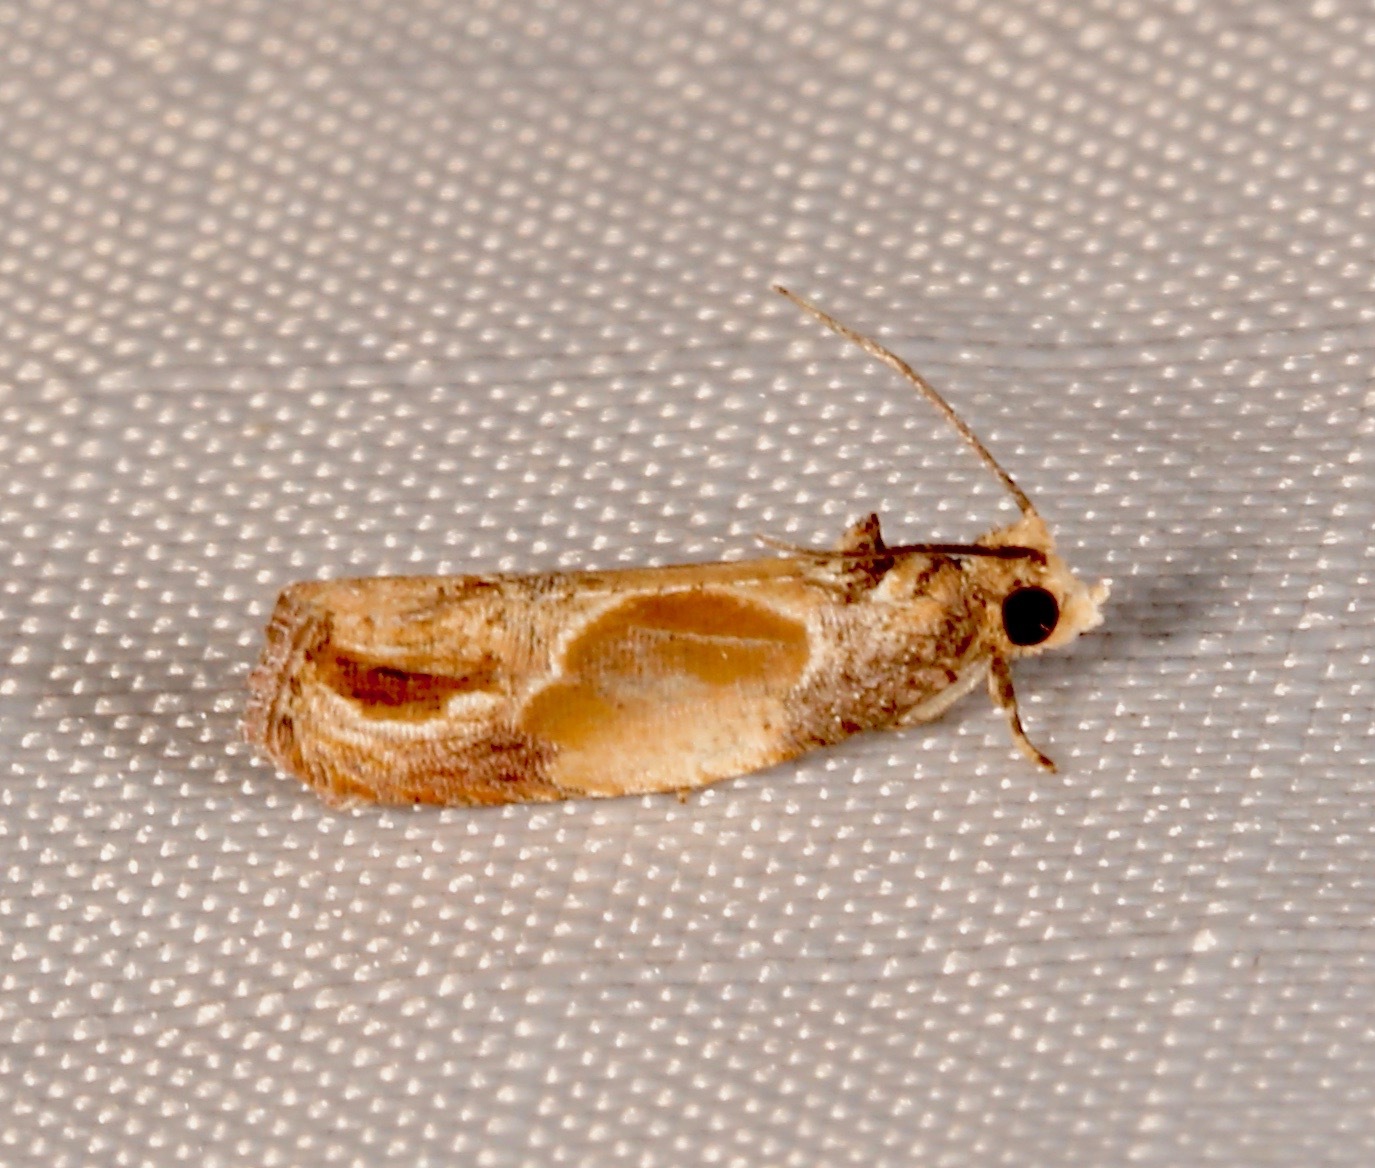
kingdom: Animalia
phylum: Arthropoda
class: Insecta
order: Lepidoptera
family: Tortricidae
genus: Eumarozia
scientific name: Eumarozia malachitana
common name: Sculptured moth
